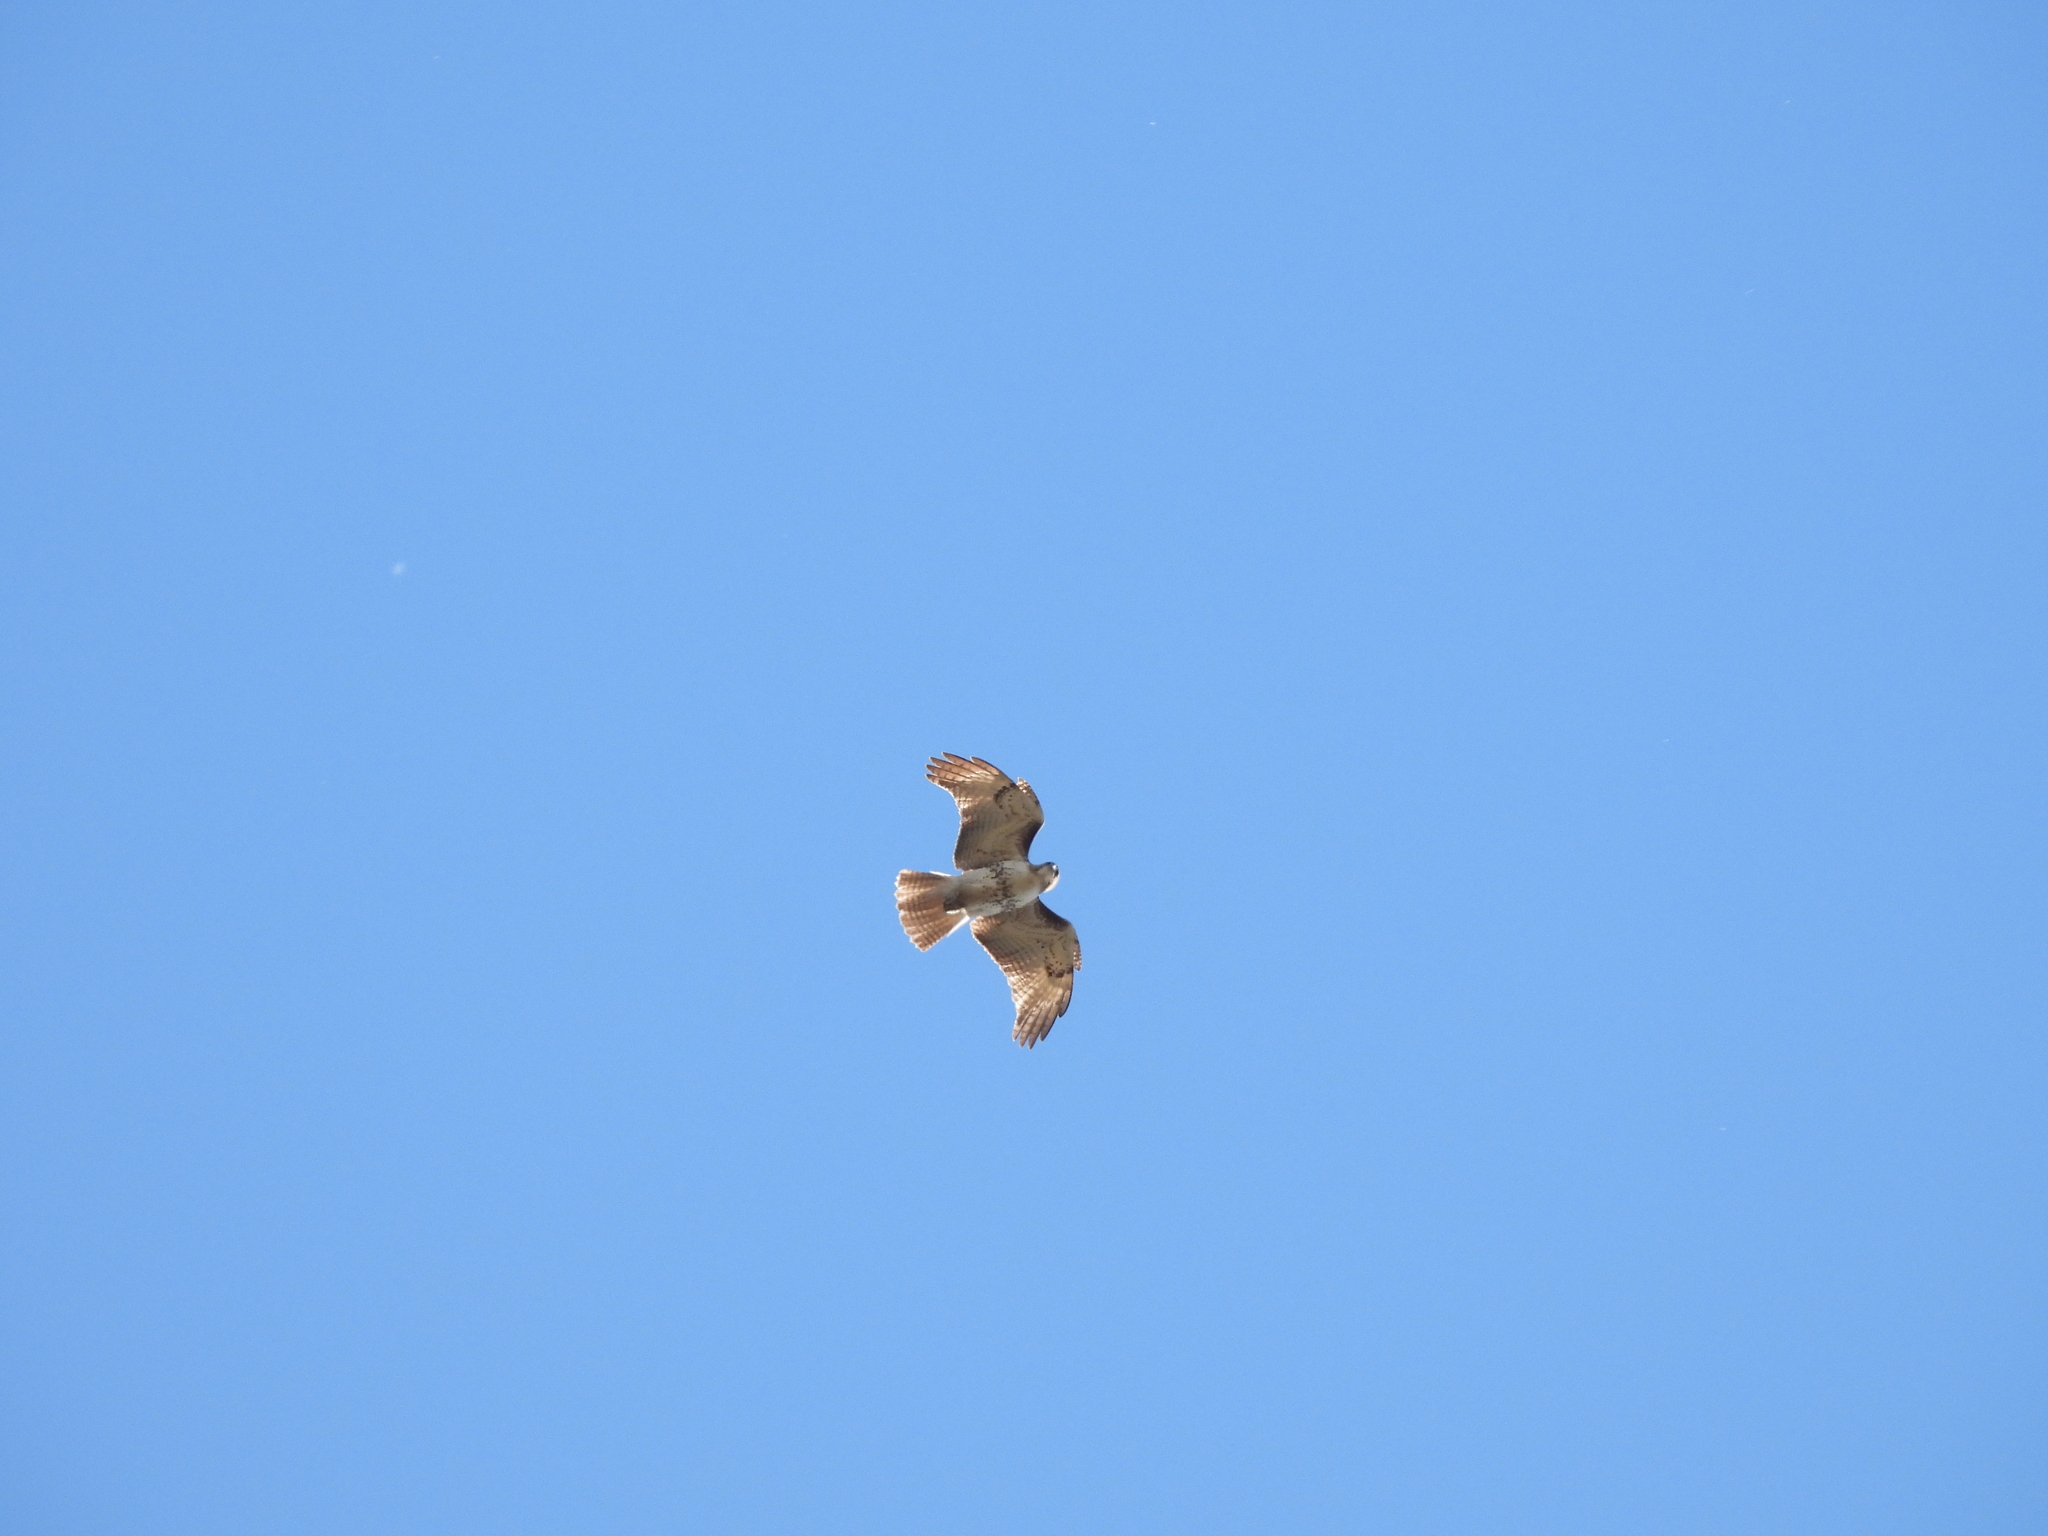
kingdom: Animalia
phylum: Chordata
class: Aves
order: Accipitriformes
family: Accipitridae
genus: Buteo
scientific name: Buteo jamaicensis
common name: Red-tailed hawk
